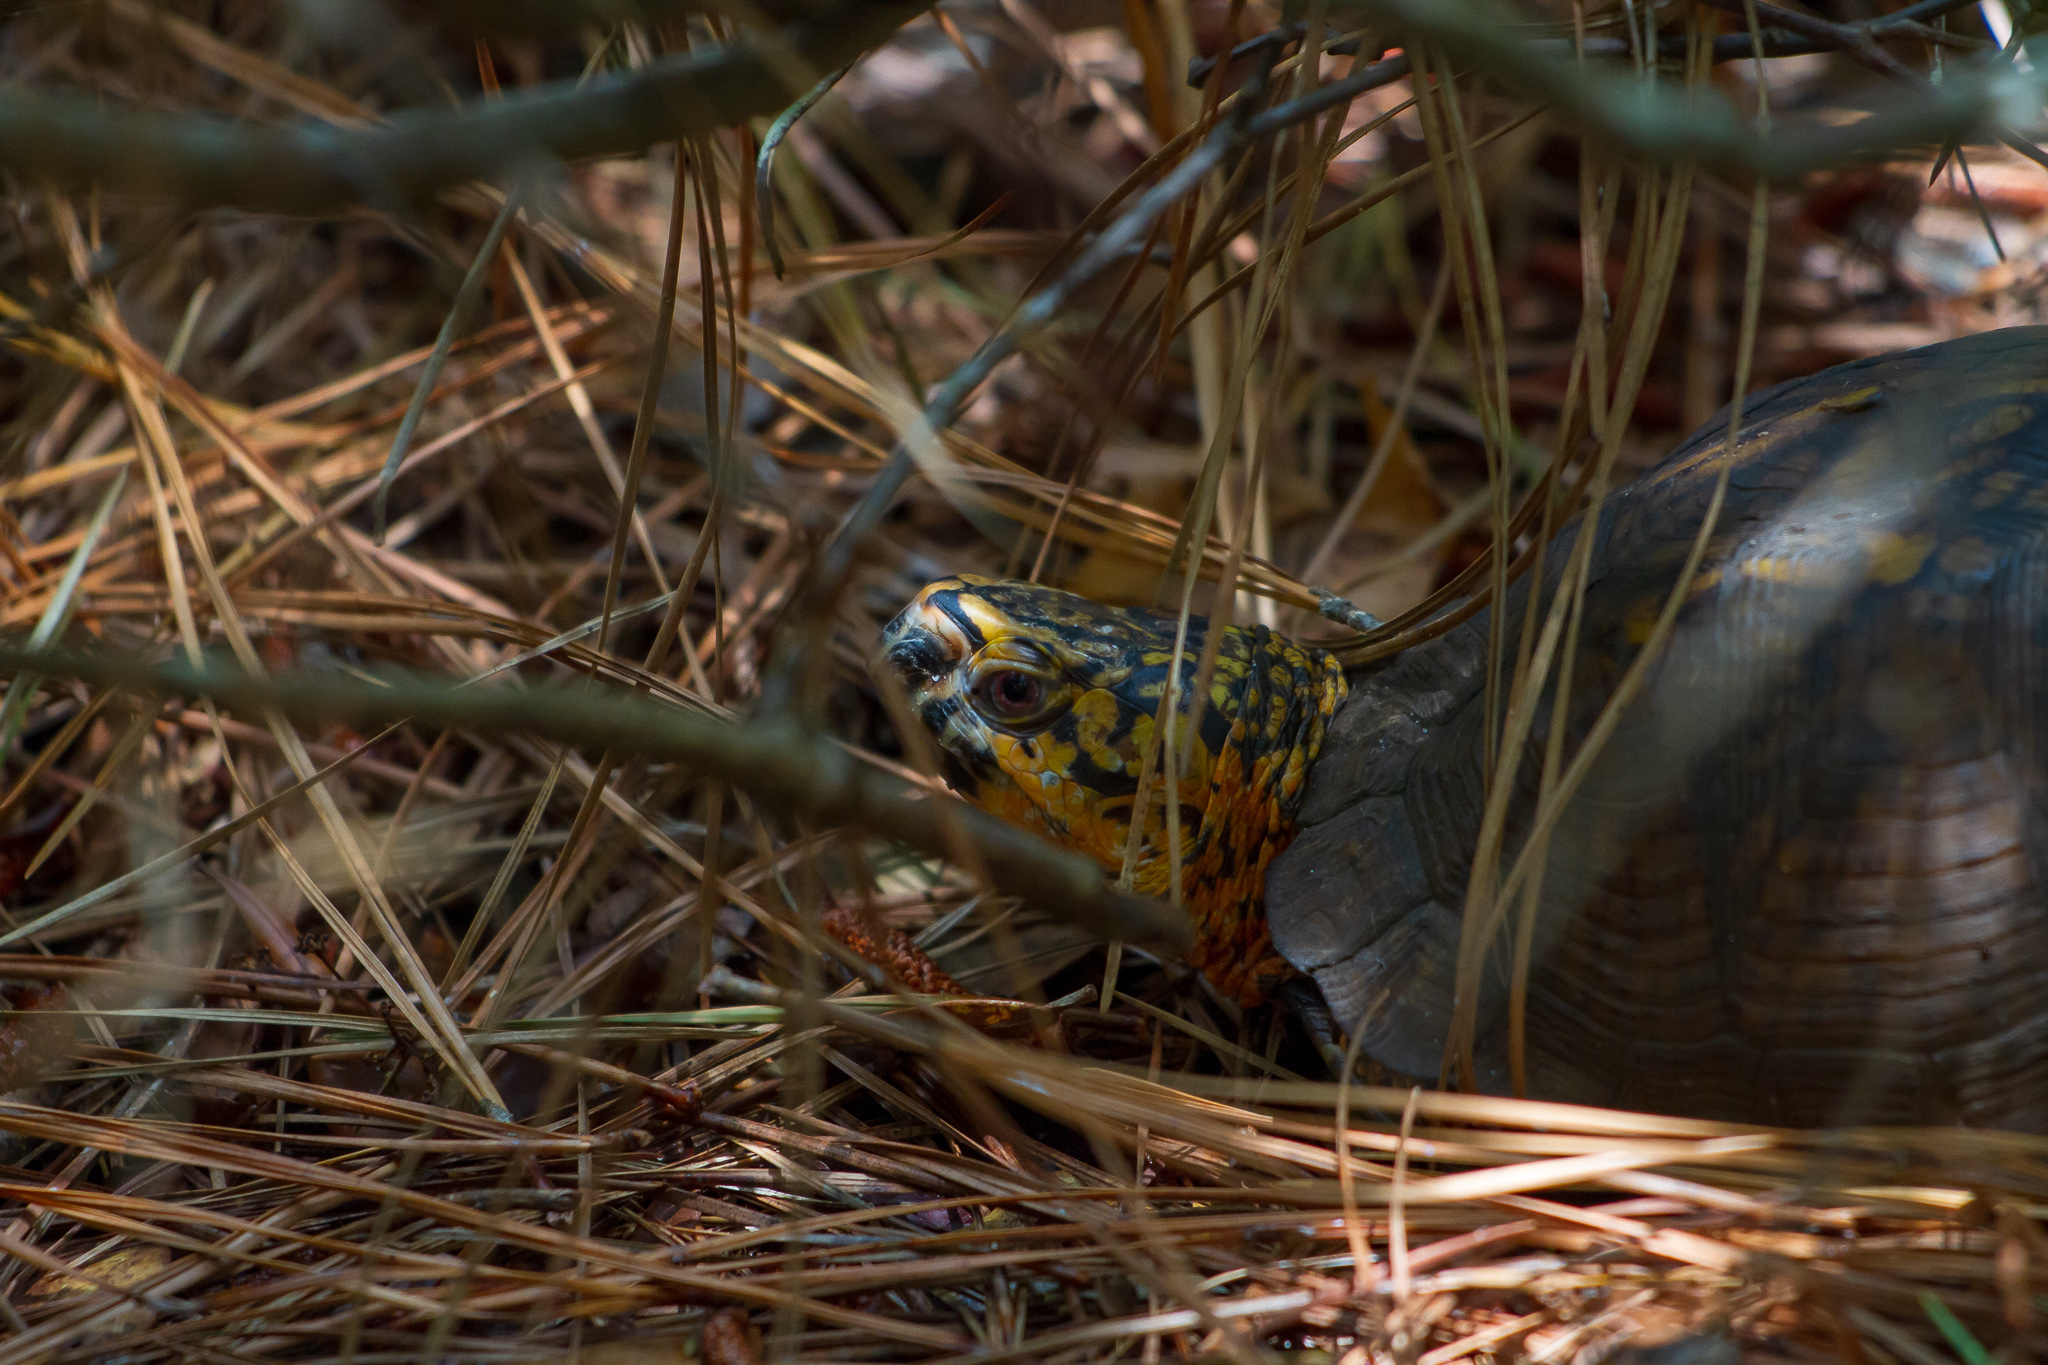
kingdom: Animalia
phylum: Chordata
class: Testudines
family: Emydidae
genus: Terrapene
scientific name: Terrapene carolina
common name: Common box turtle
